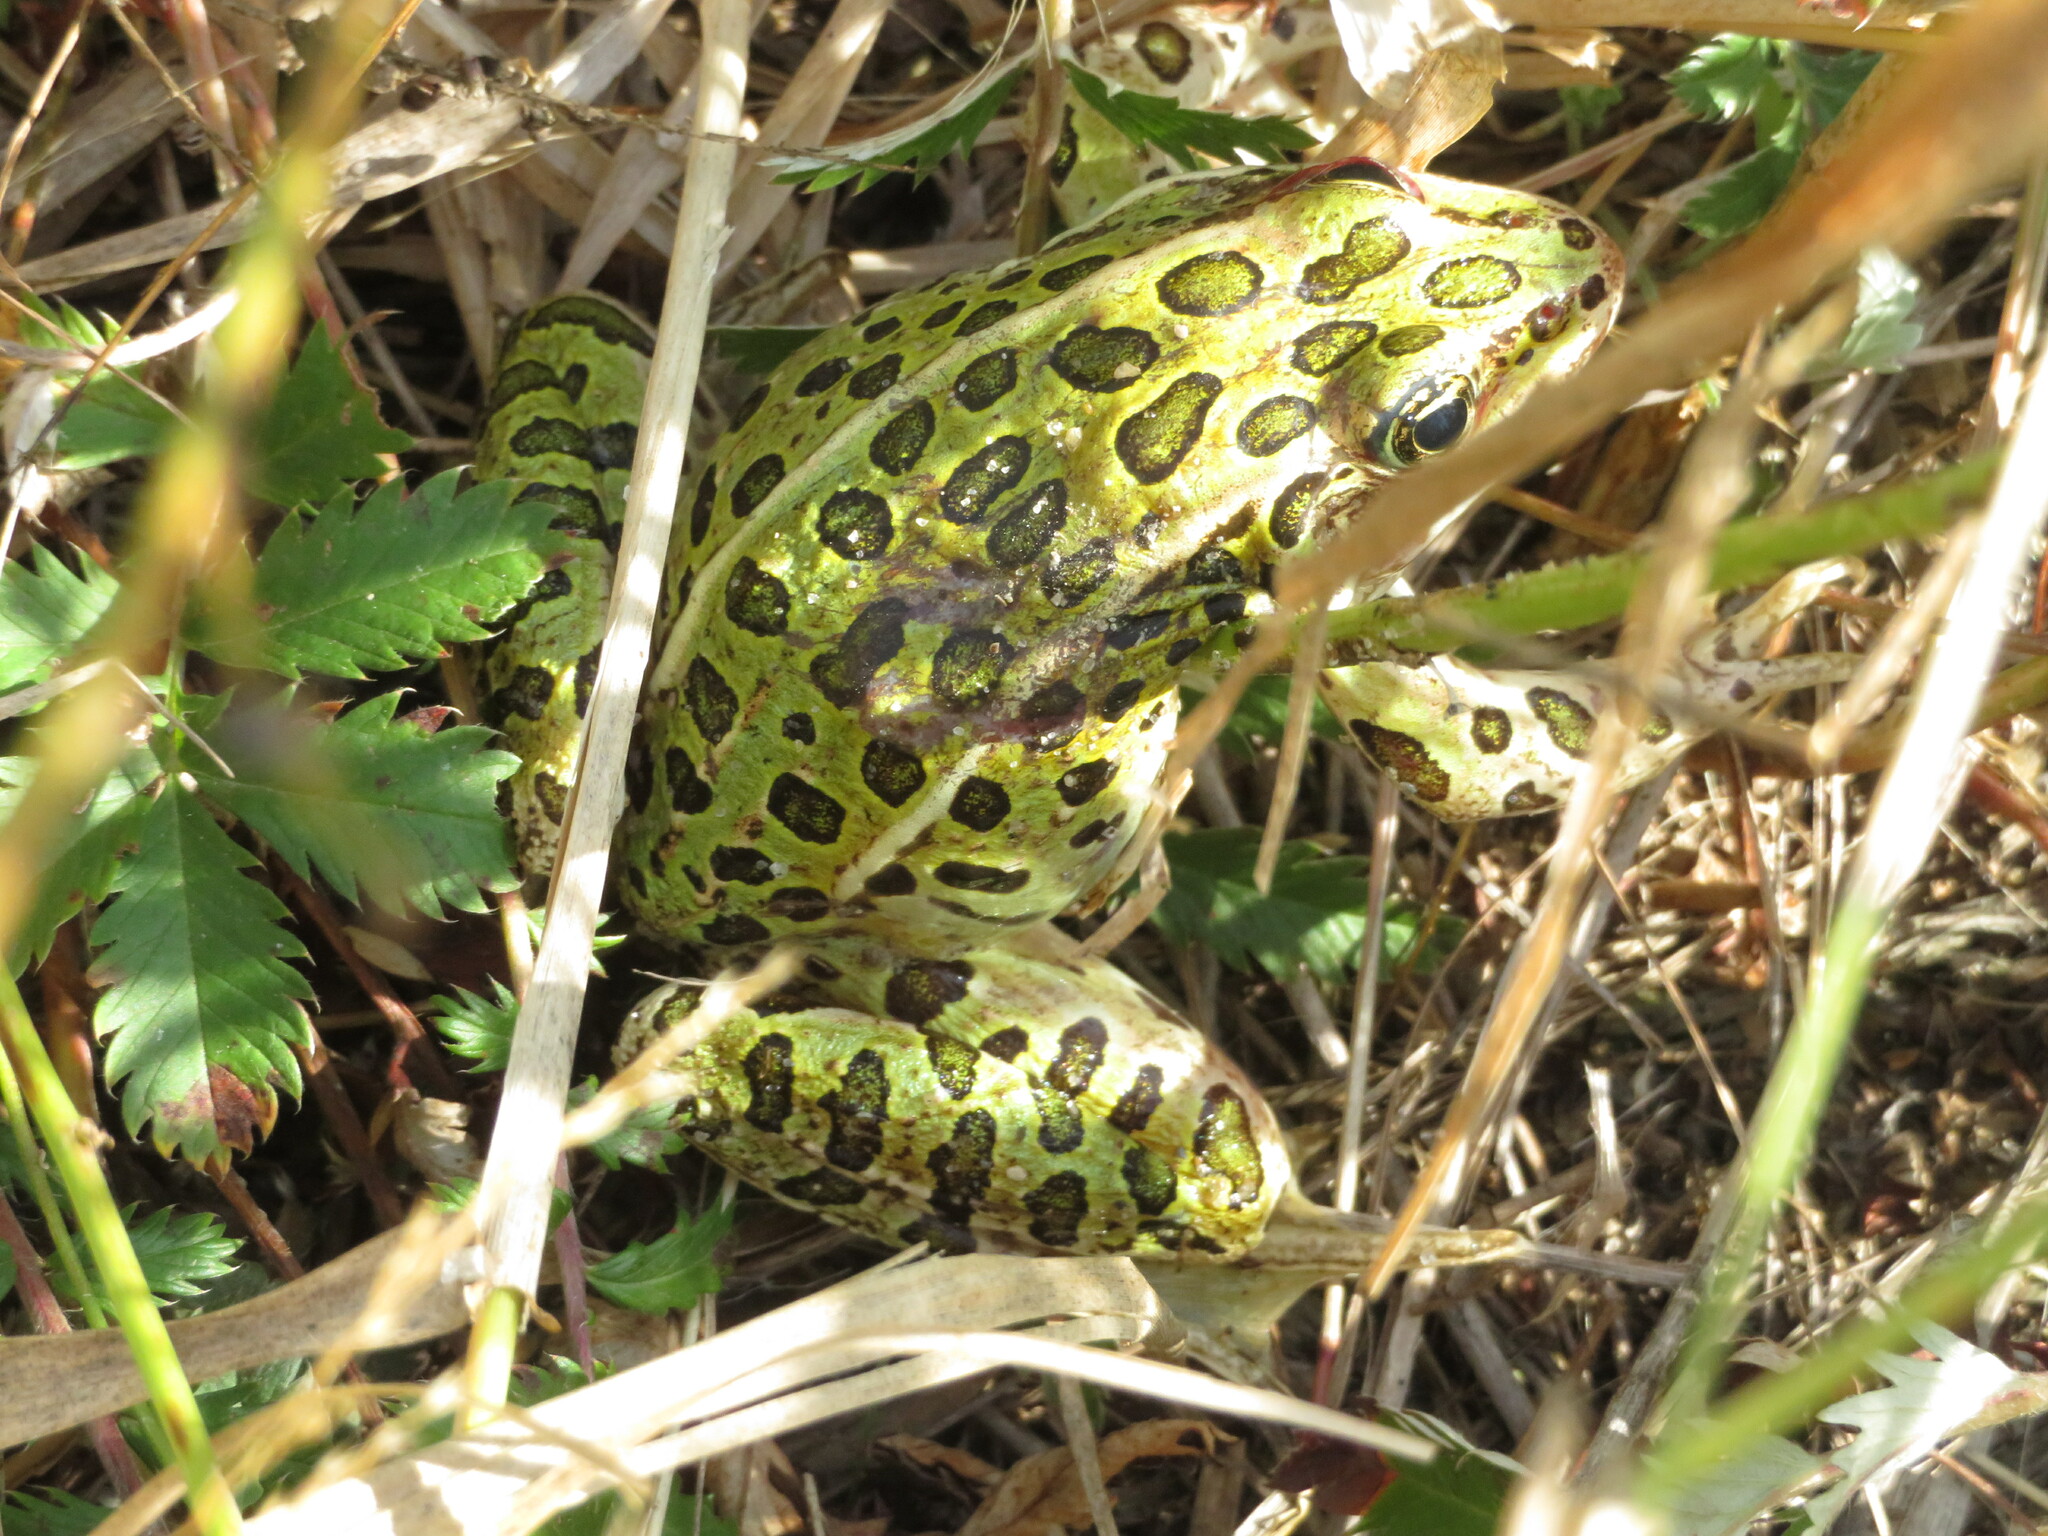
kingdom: Animalia
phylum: Chordata
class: Amphibia
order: Anura
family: Ranidae
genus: Lithobates
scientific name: Lithobates pipiens
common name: Northern leopard frog
